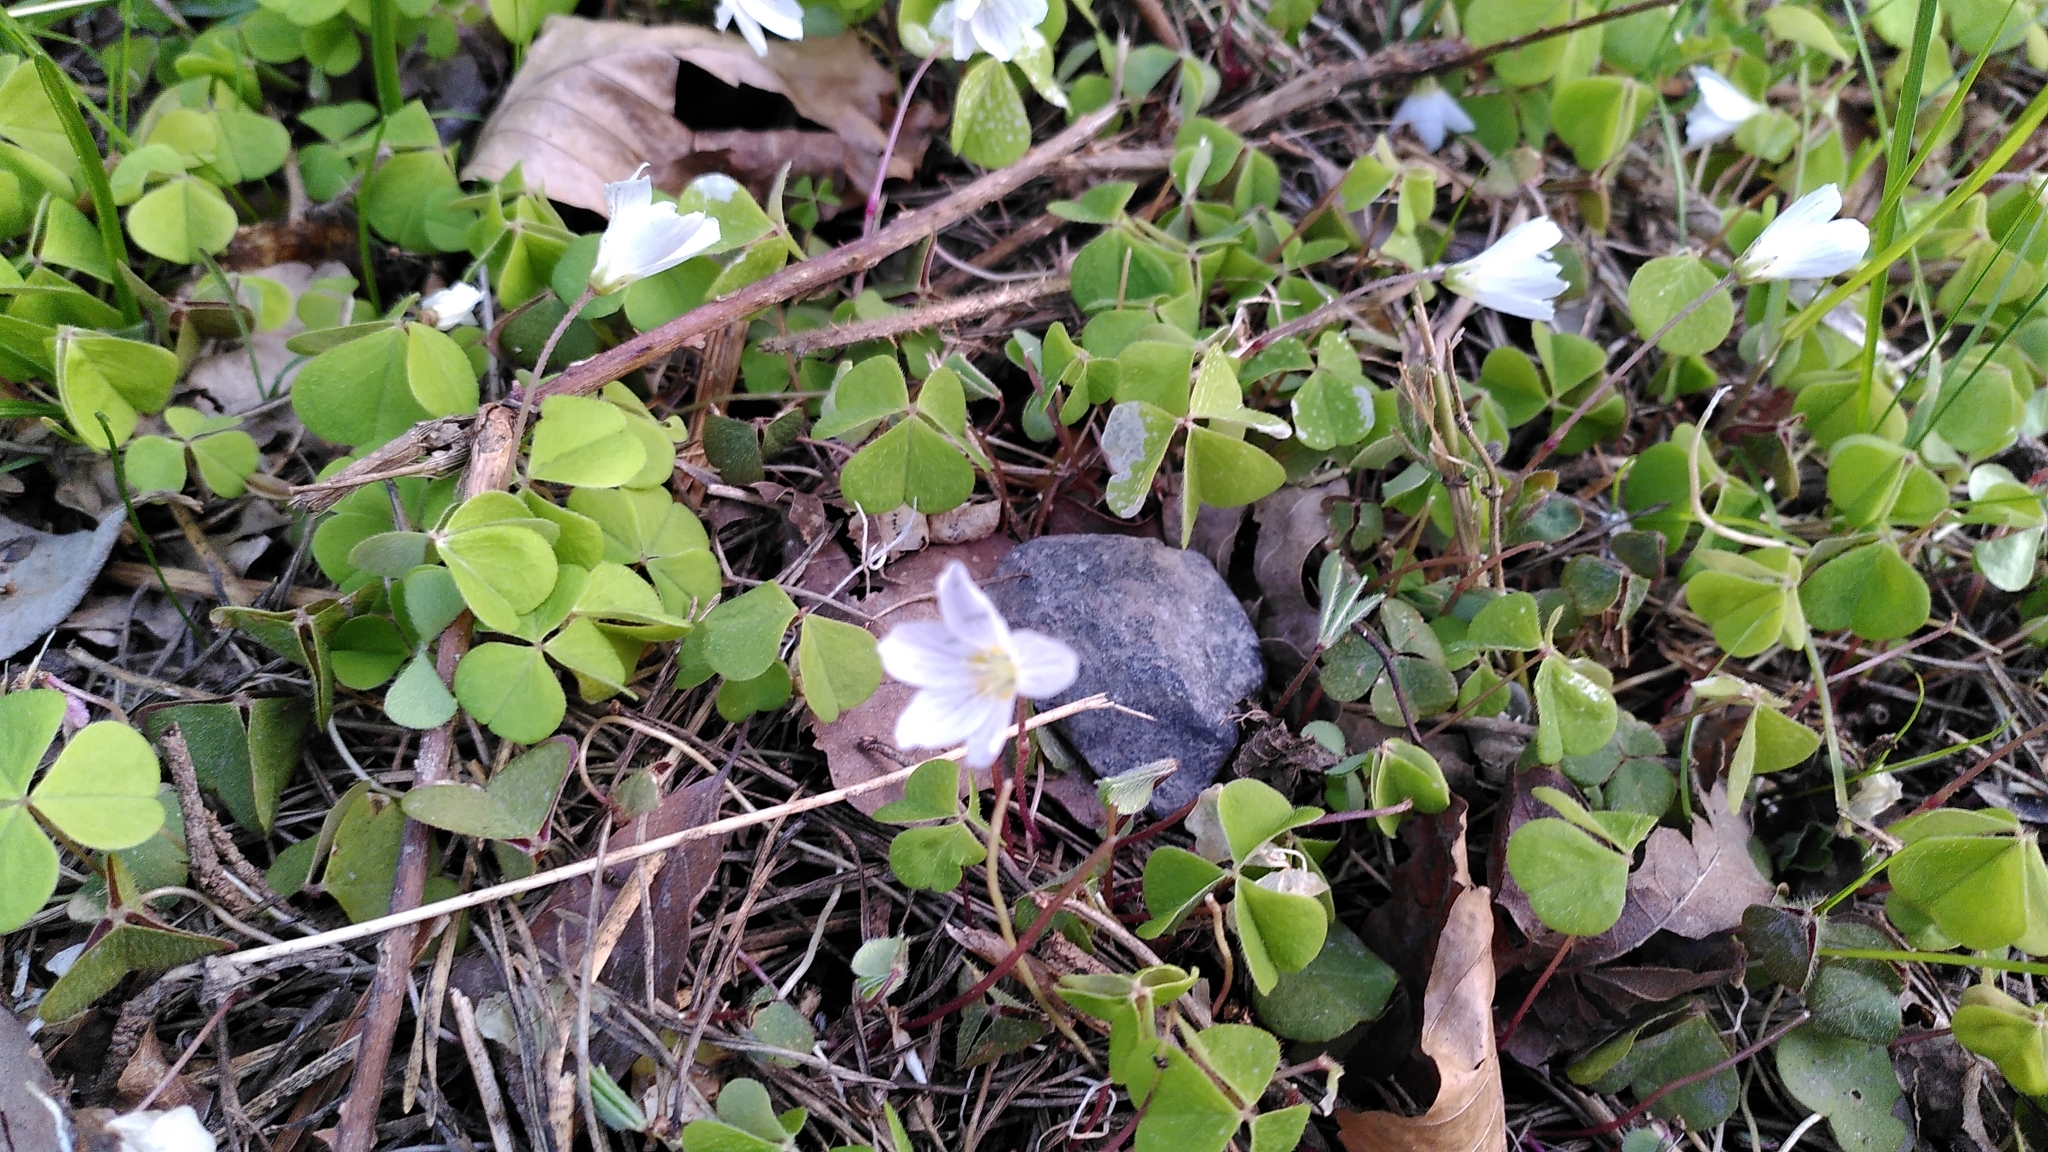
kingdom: Plantae
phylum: Tracheophyta
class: Magnoliopsida
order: Oxalidales
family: Oxalidaceae
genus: Oxalis
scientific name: Oxalis acetosella
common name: Wood-sorrel
